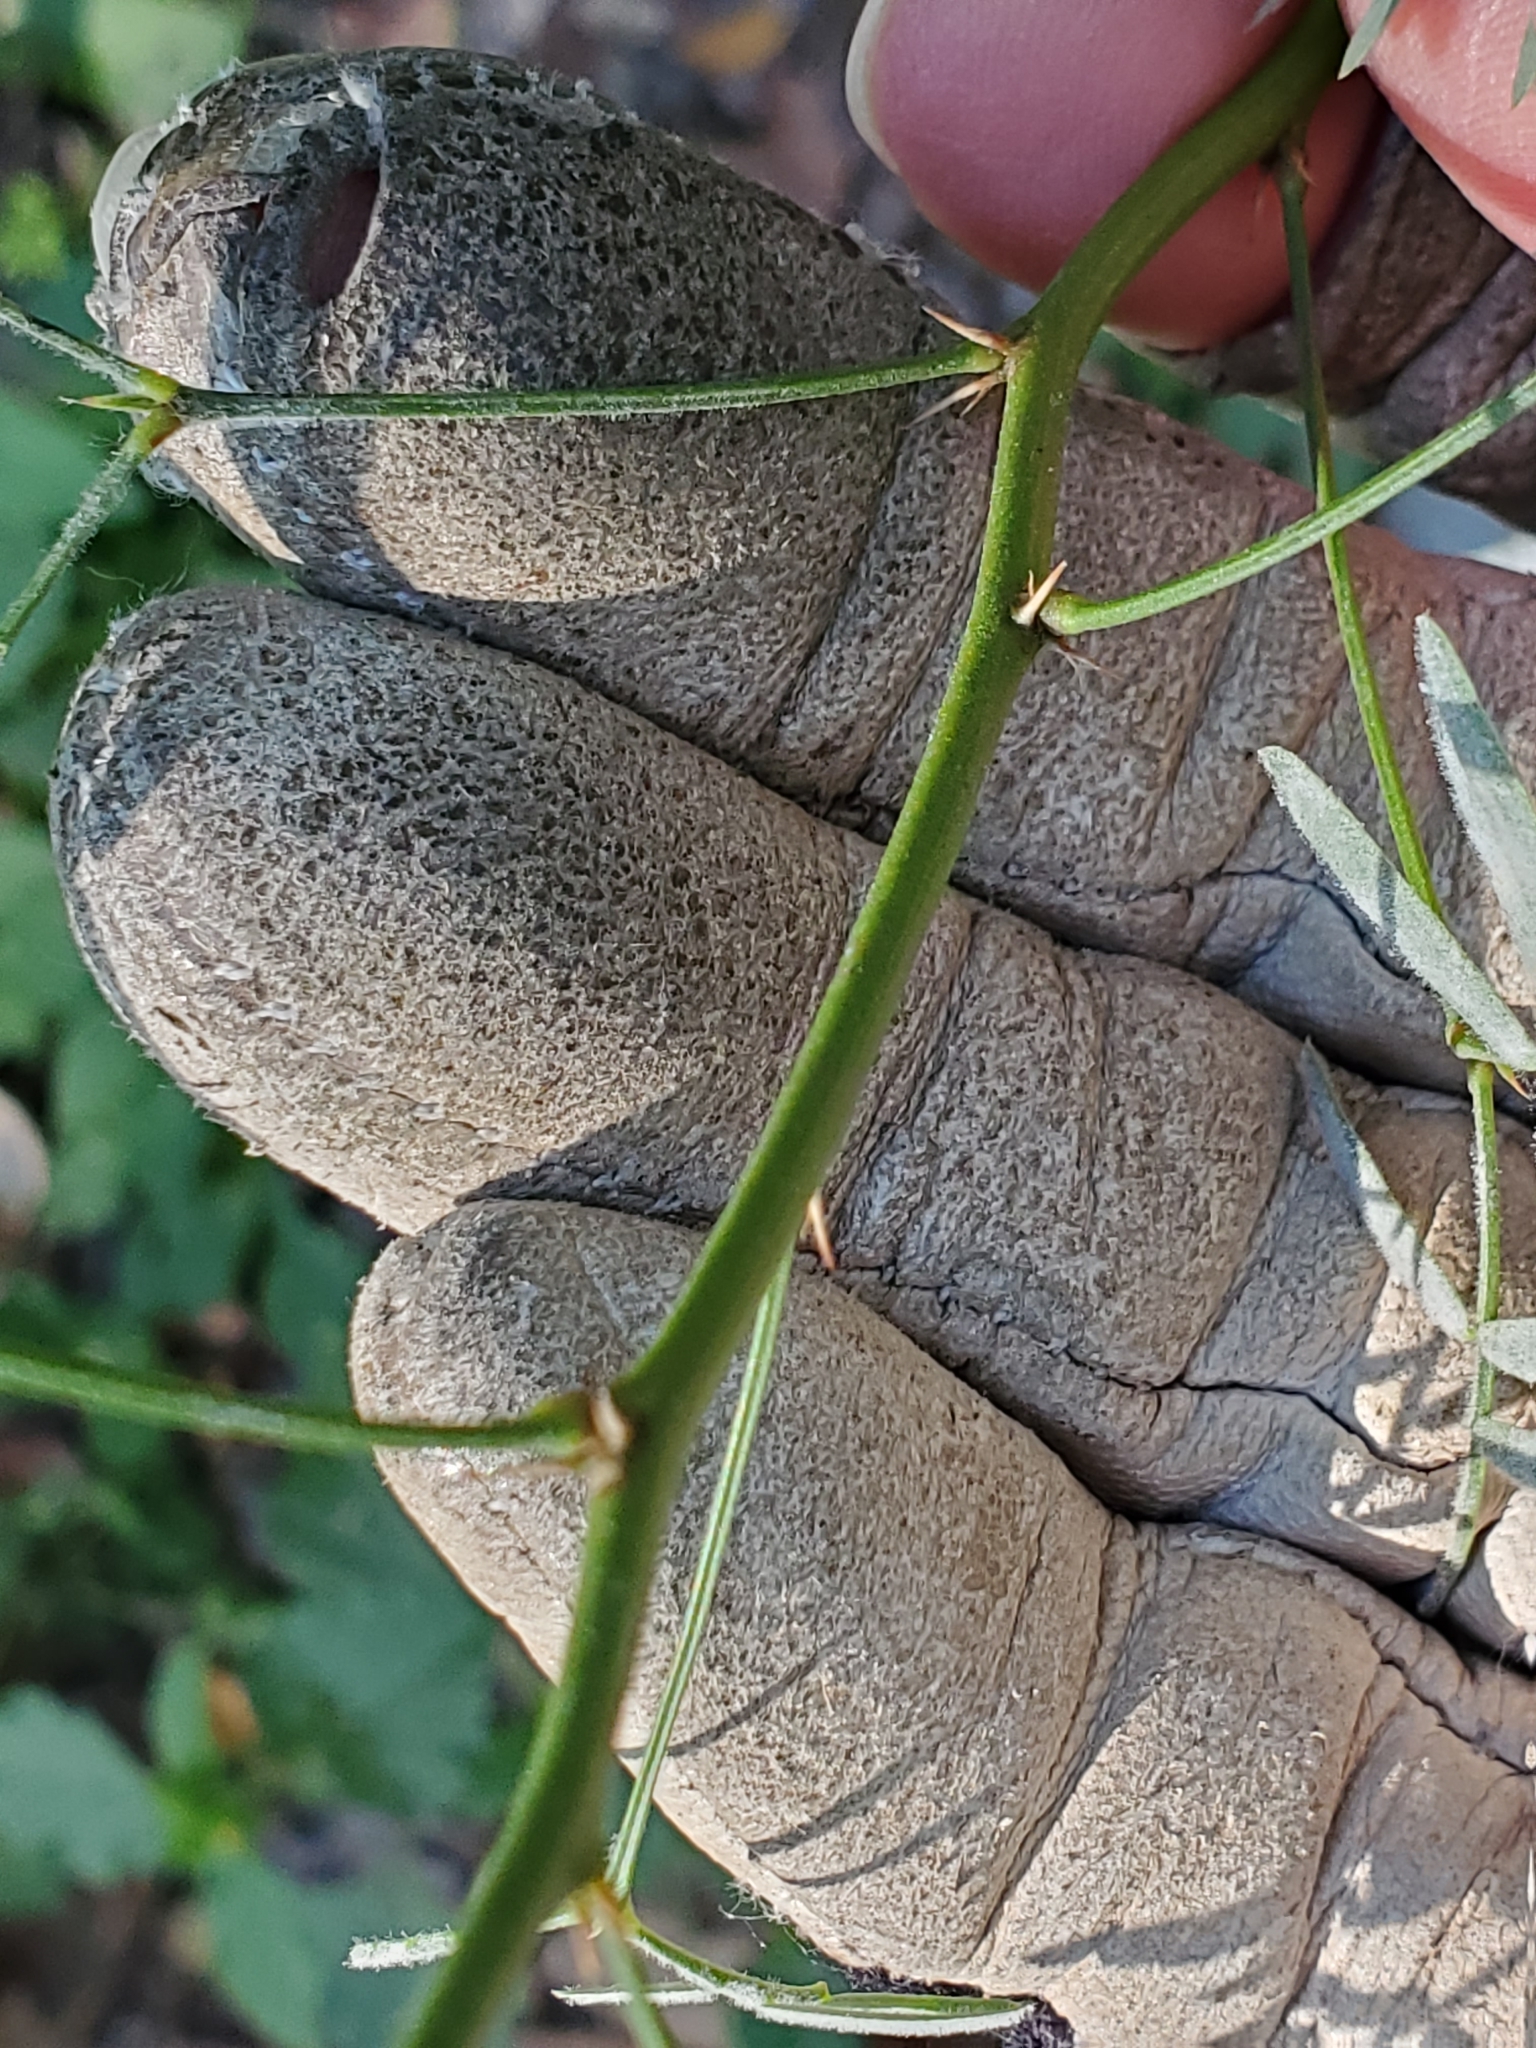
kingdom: Plantae
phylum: Tracheophyta
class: Magnoliopsida
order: Fabales
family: Fabaceae
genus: Prosopis
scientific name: Prosopis glandulosa
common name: Honey mesquite
